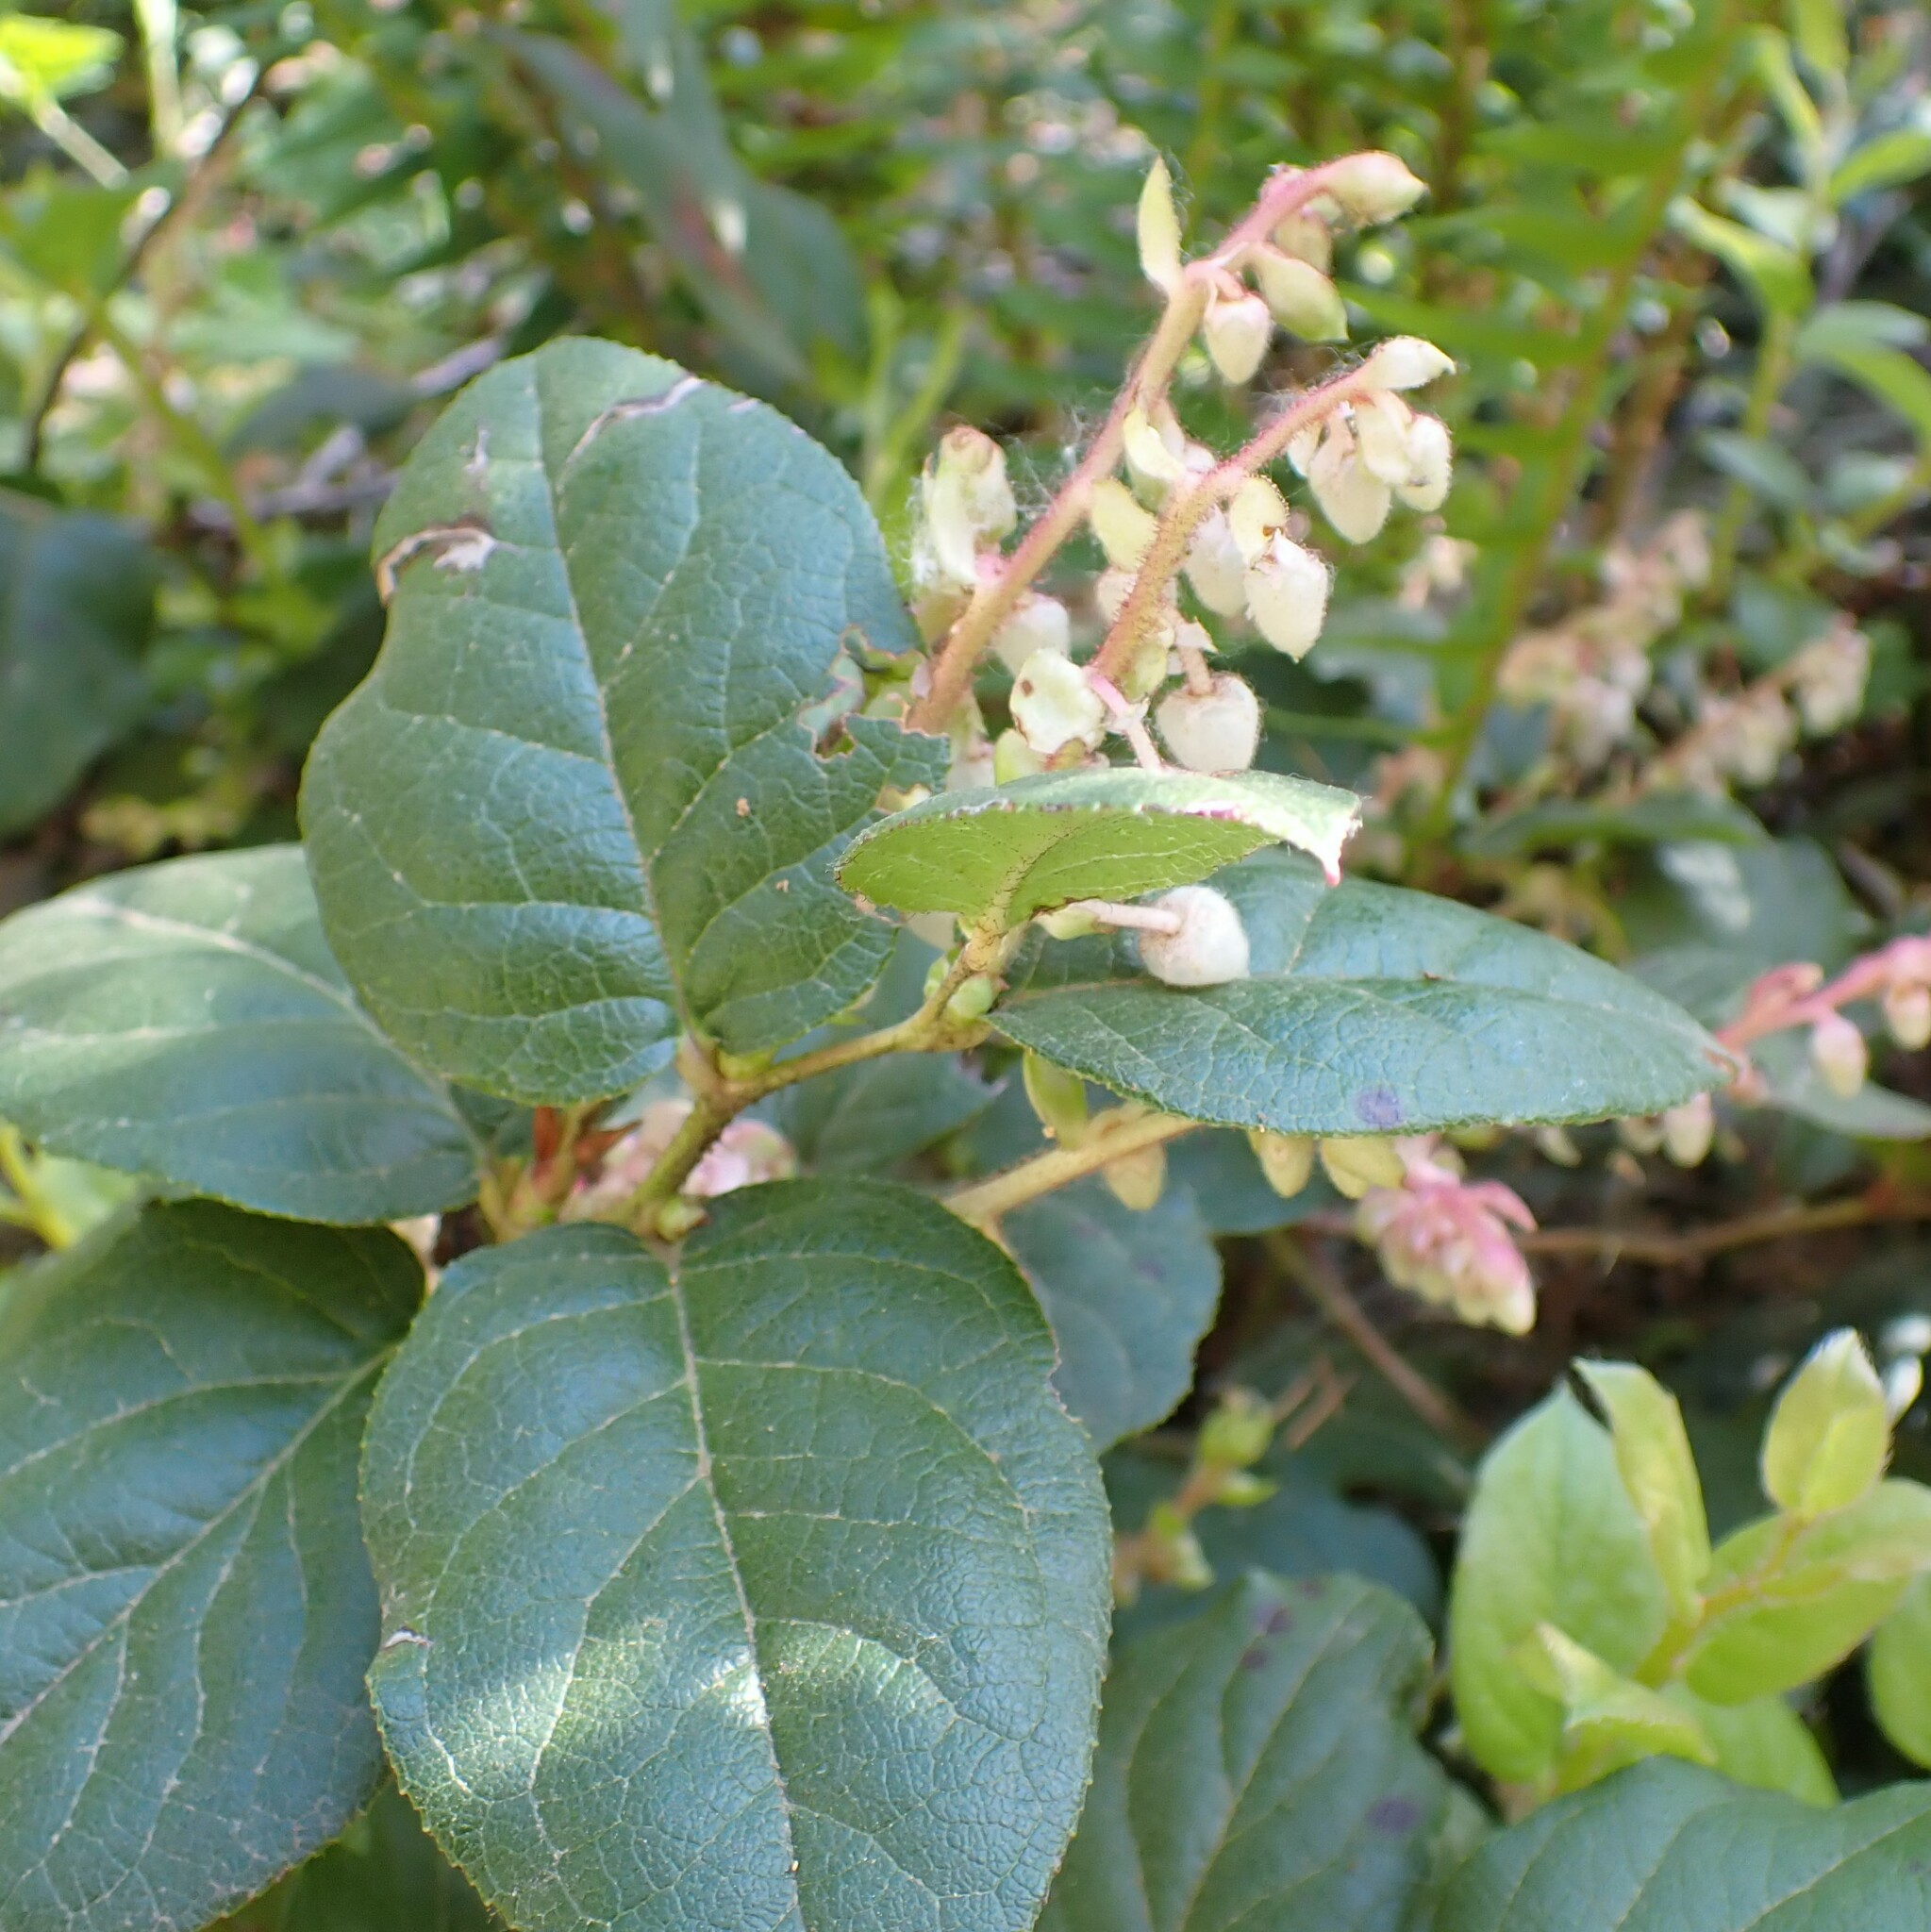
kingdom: Plantae
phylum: Tracheophyta
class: Magnoliopsida
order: Ericales
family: Ericaceae
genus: Gaultheria
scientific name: Gaultheria shallon
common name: Shallon
